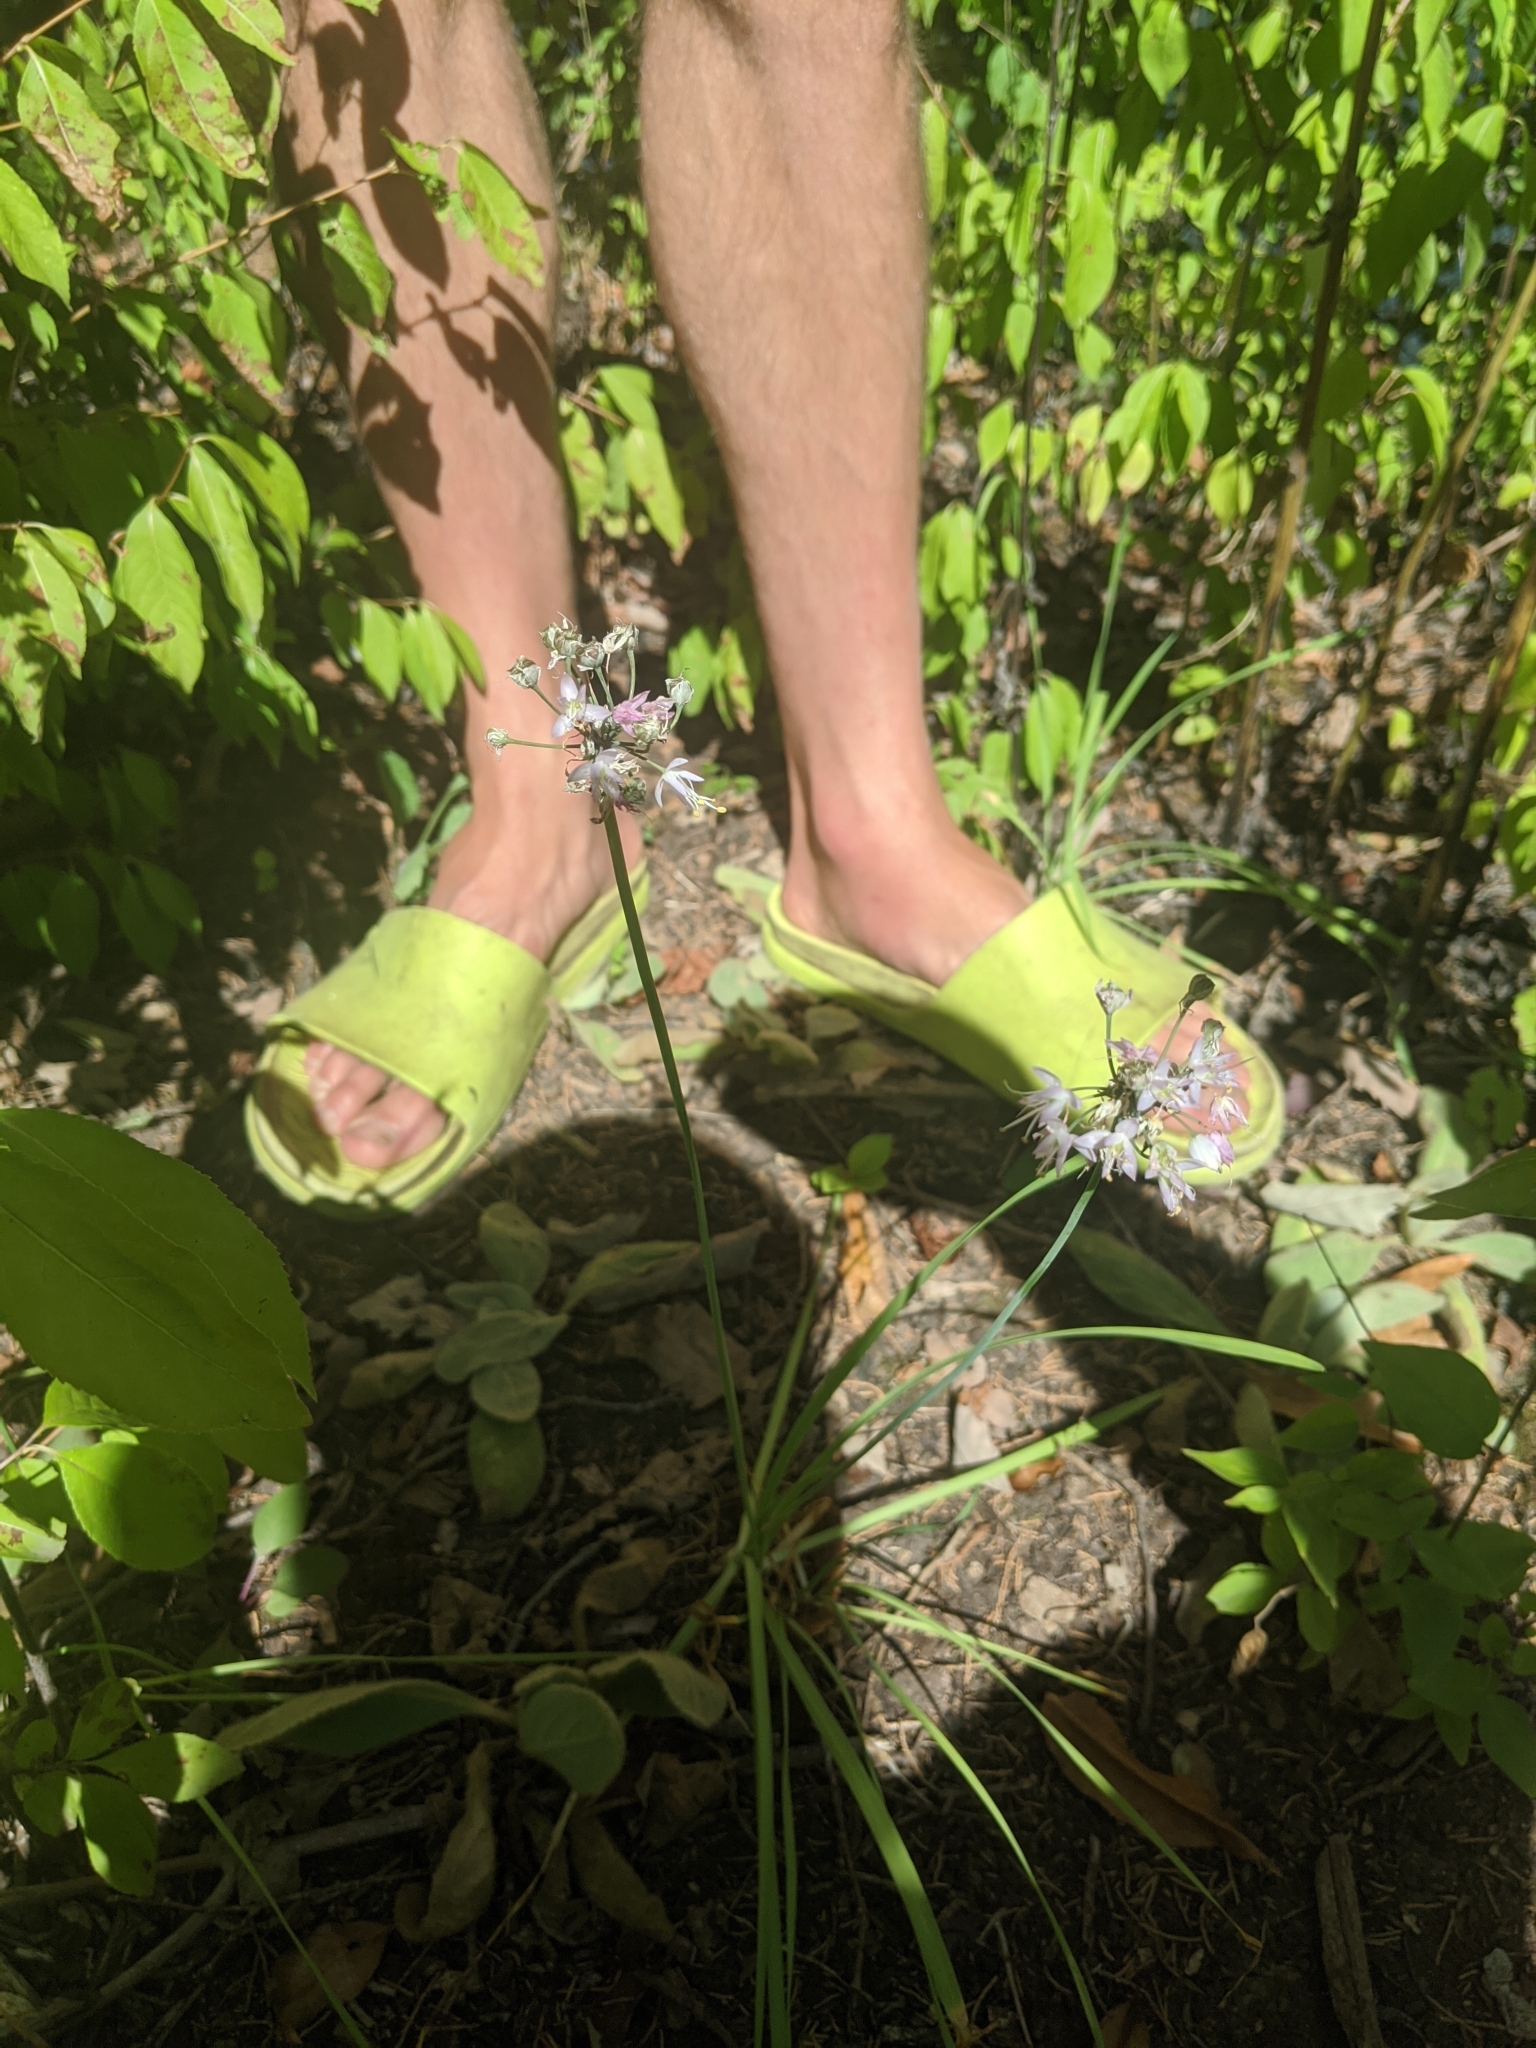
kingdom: Plantae
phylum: Tracheophyta
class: Liliopsida
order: Asparagales
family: Amaryllidaceae
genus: Allium
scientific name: Allium cernuum
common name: Nodding onion
